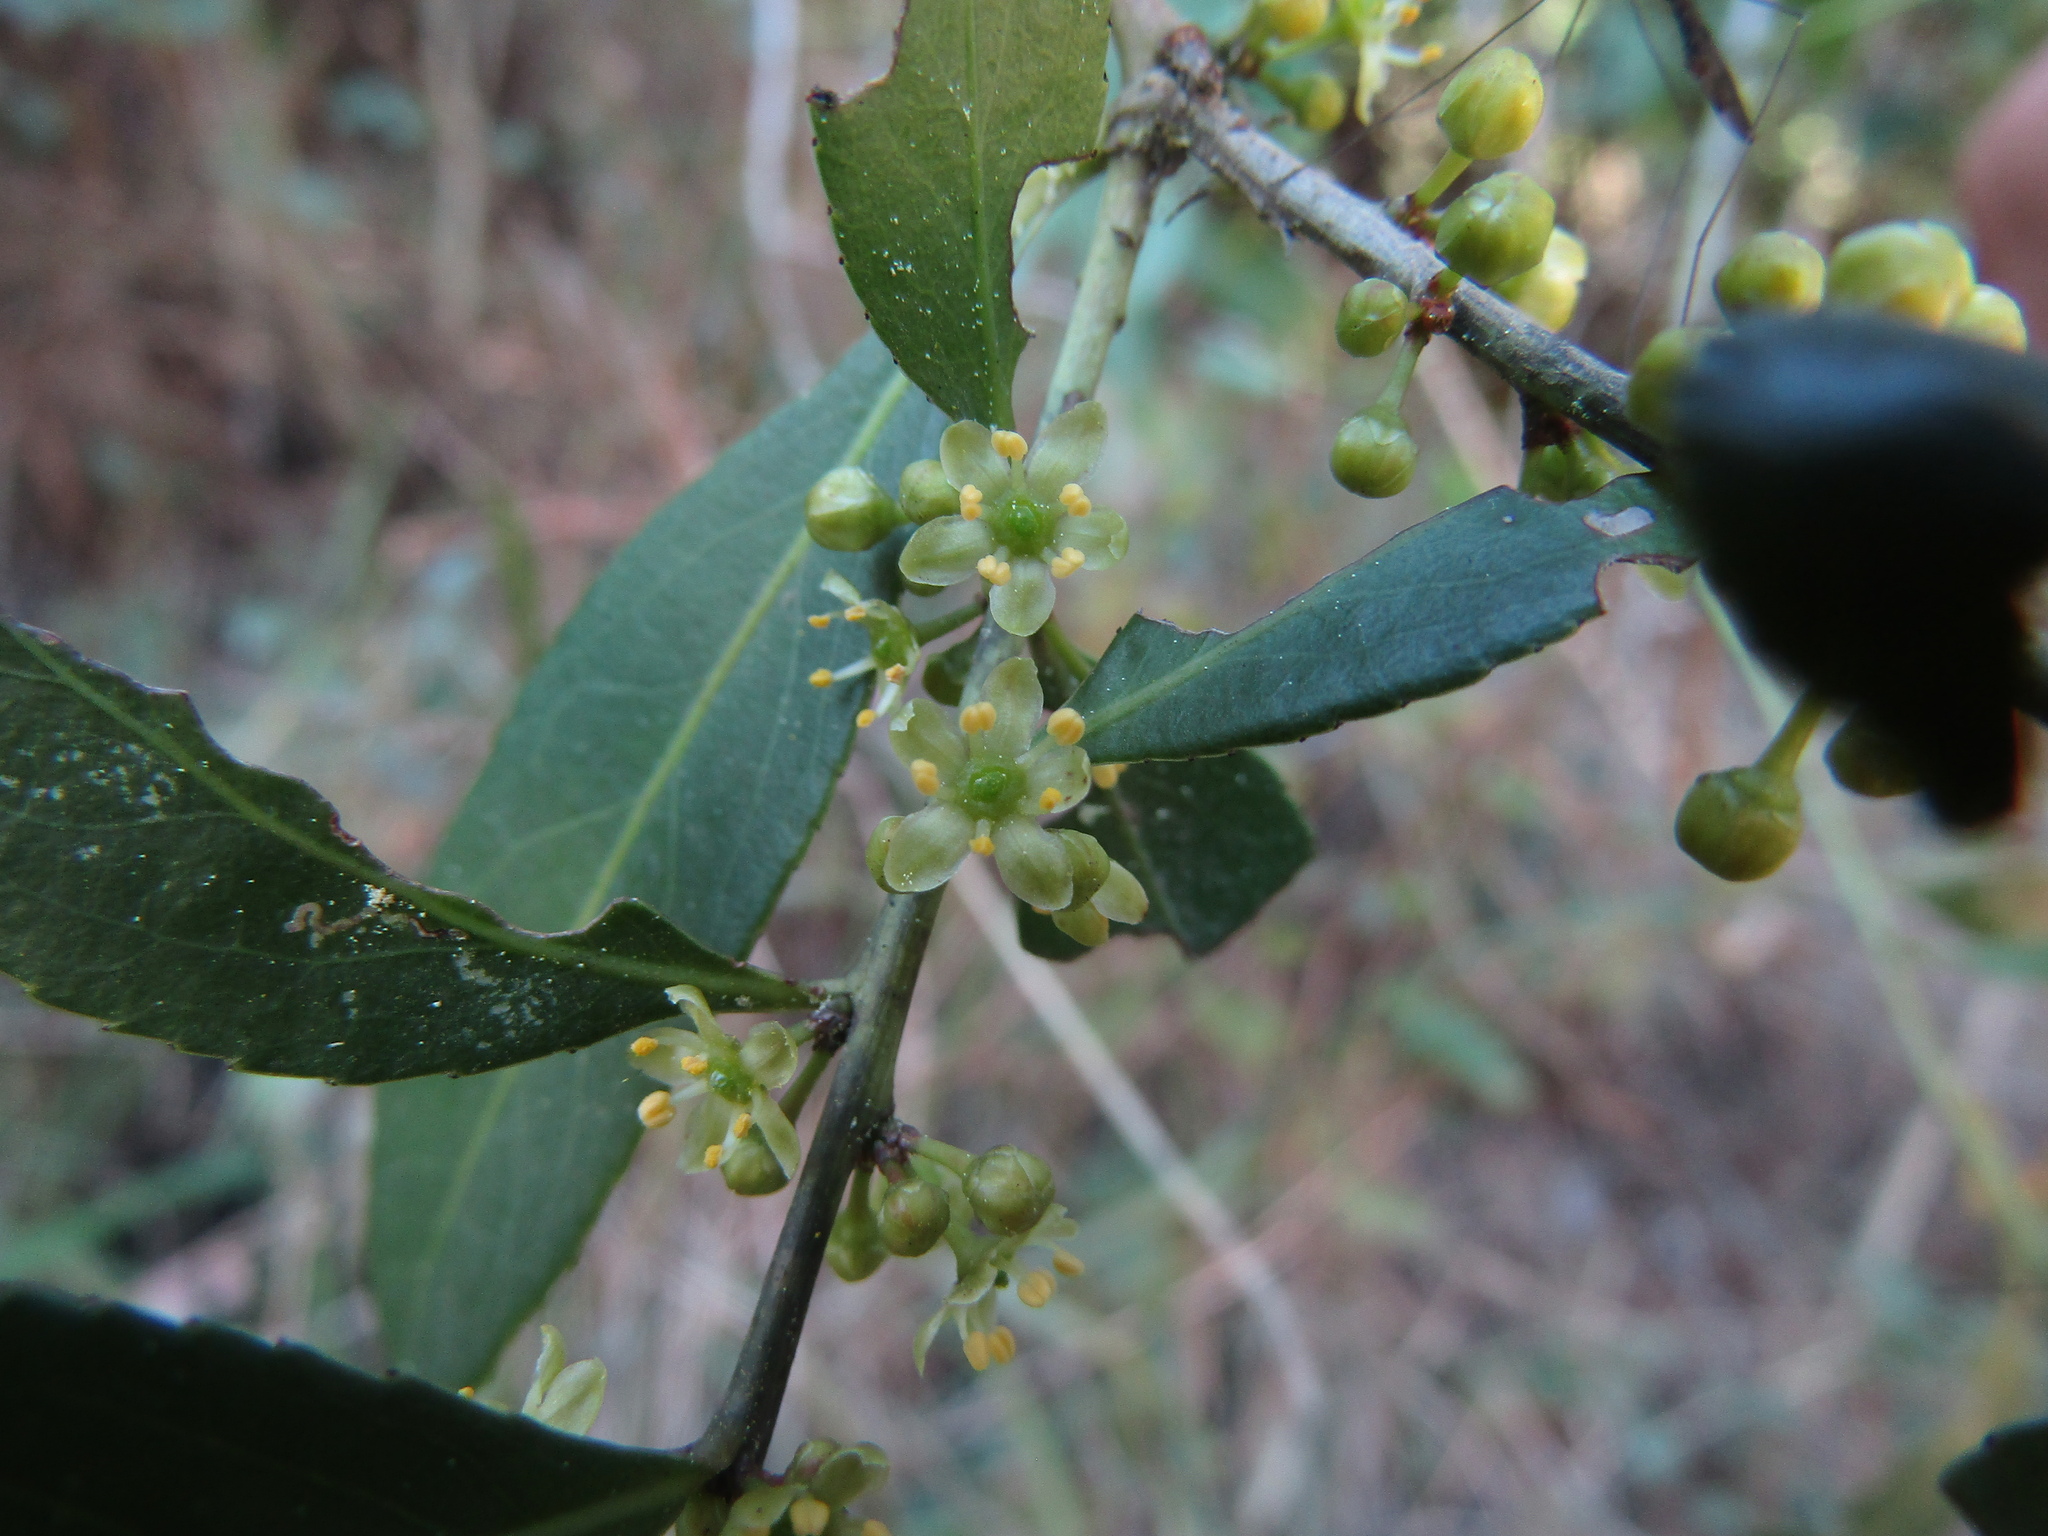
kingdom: Plantae
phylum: Tracheophyta
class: Magnoliopsida
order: Celastrales
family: Celastraceae
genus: Maytenus
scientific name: Maytenus boaria
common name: Mayten
